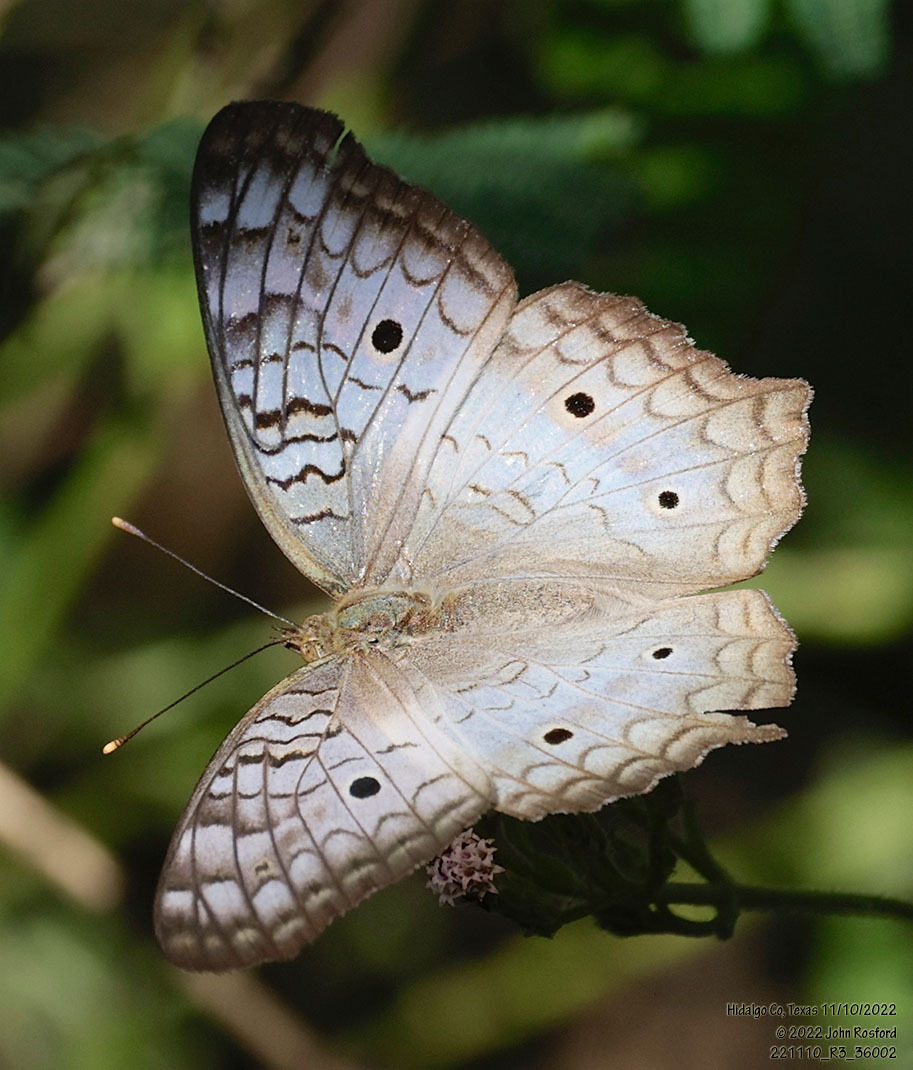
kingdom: Animalia
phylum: Arthropoda
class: Insecta
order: Lepidoptera
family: Nymphalidae
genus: Anartia
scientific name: Anartia jatrophae
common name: White peacock
